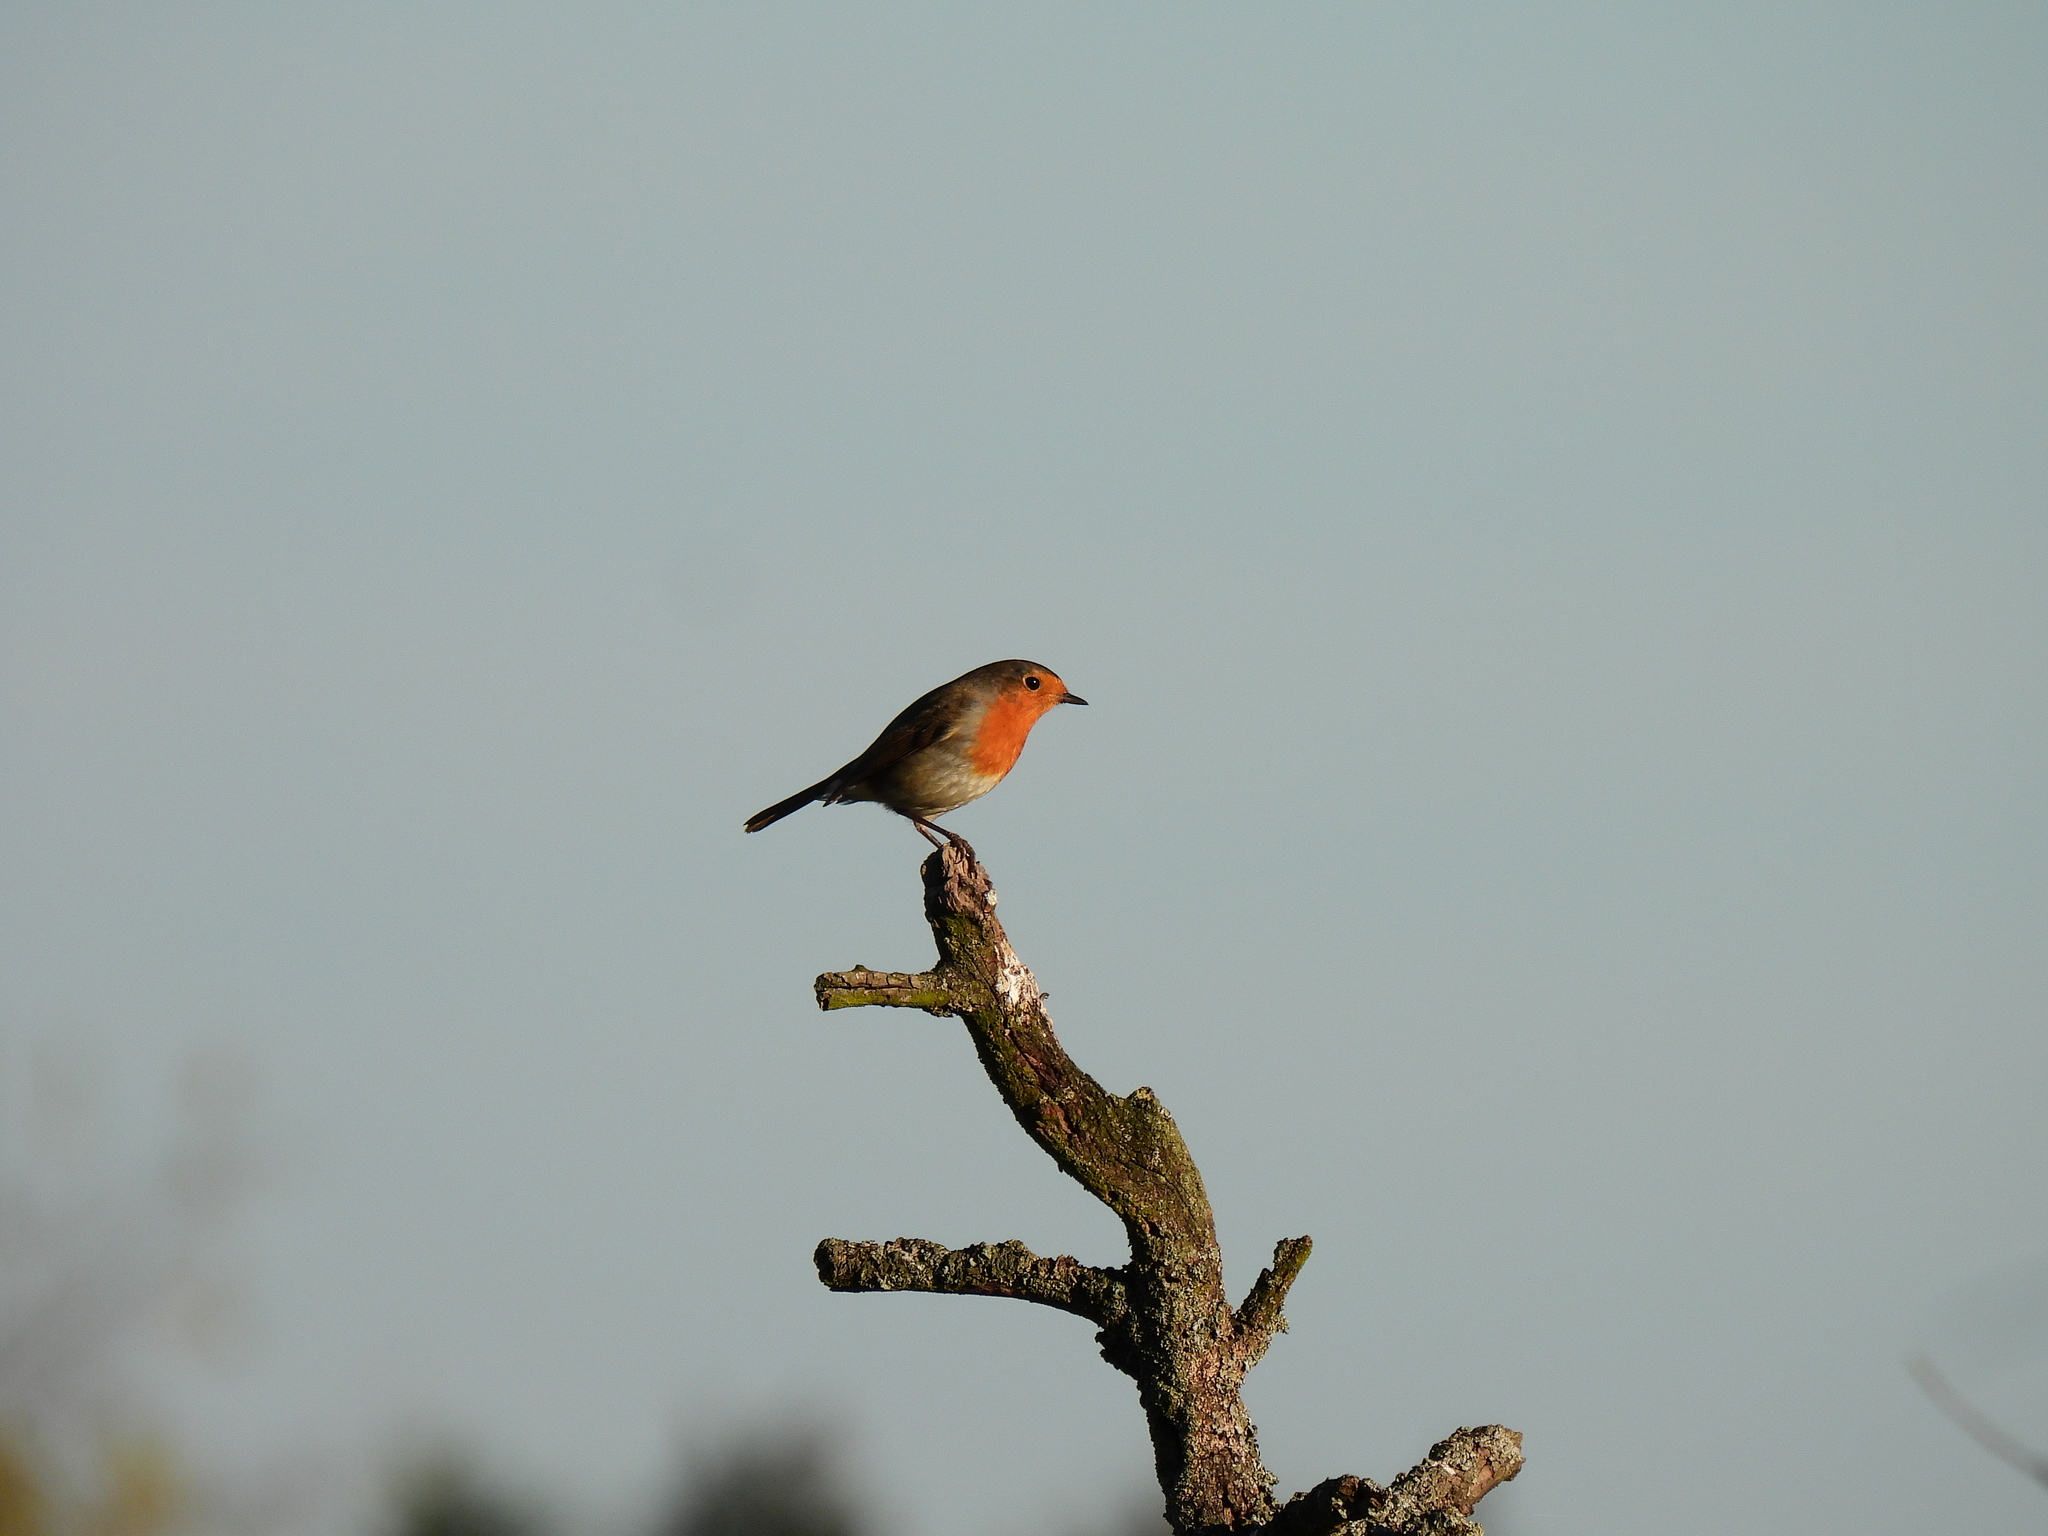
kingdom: Animalia
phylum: Chordata
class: Aves
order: Passeriformes
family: Muscicapidae
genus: Erithacus
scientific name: Erithacus rubecula
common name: European robin
